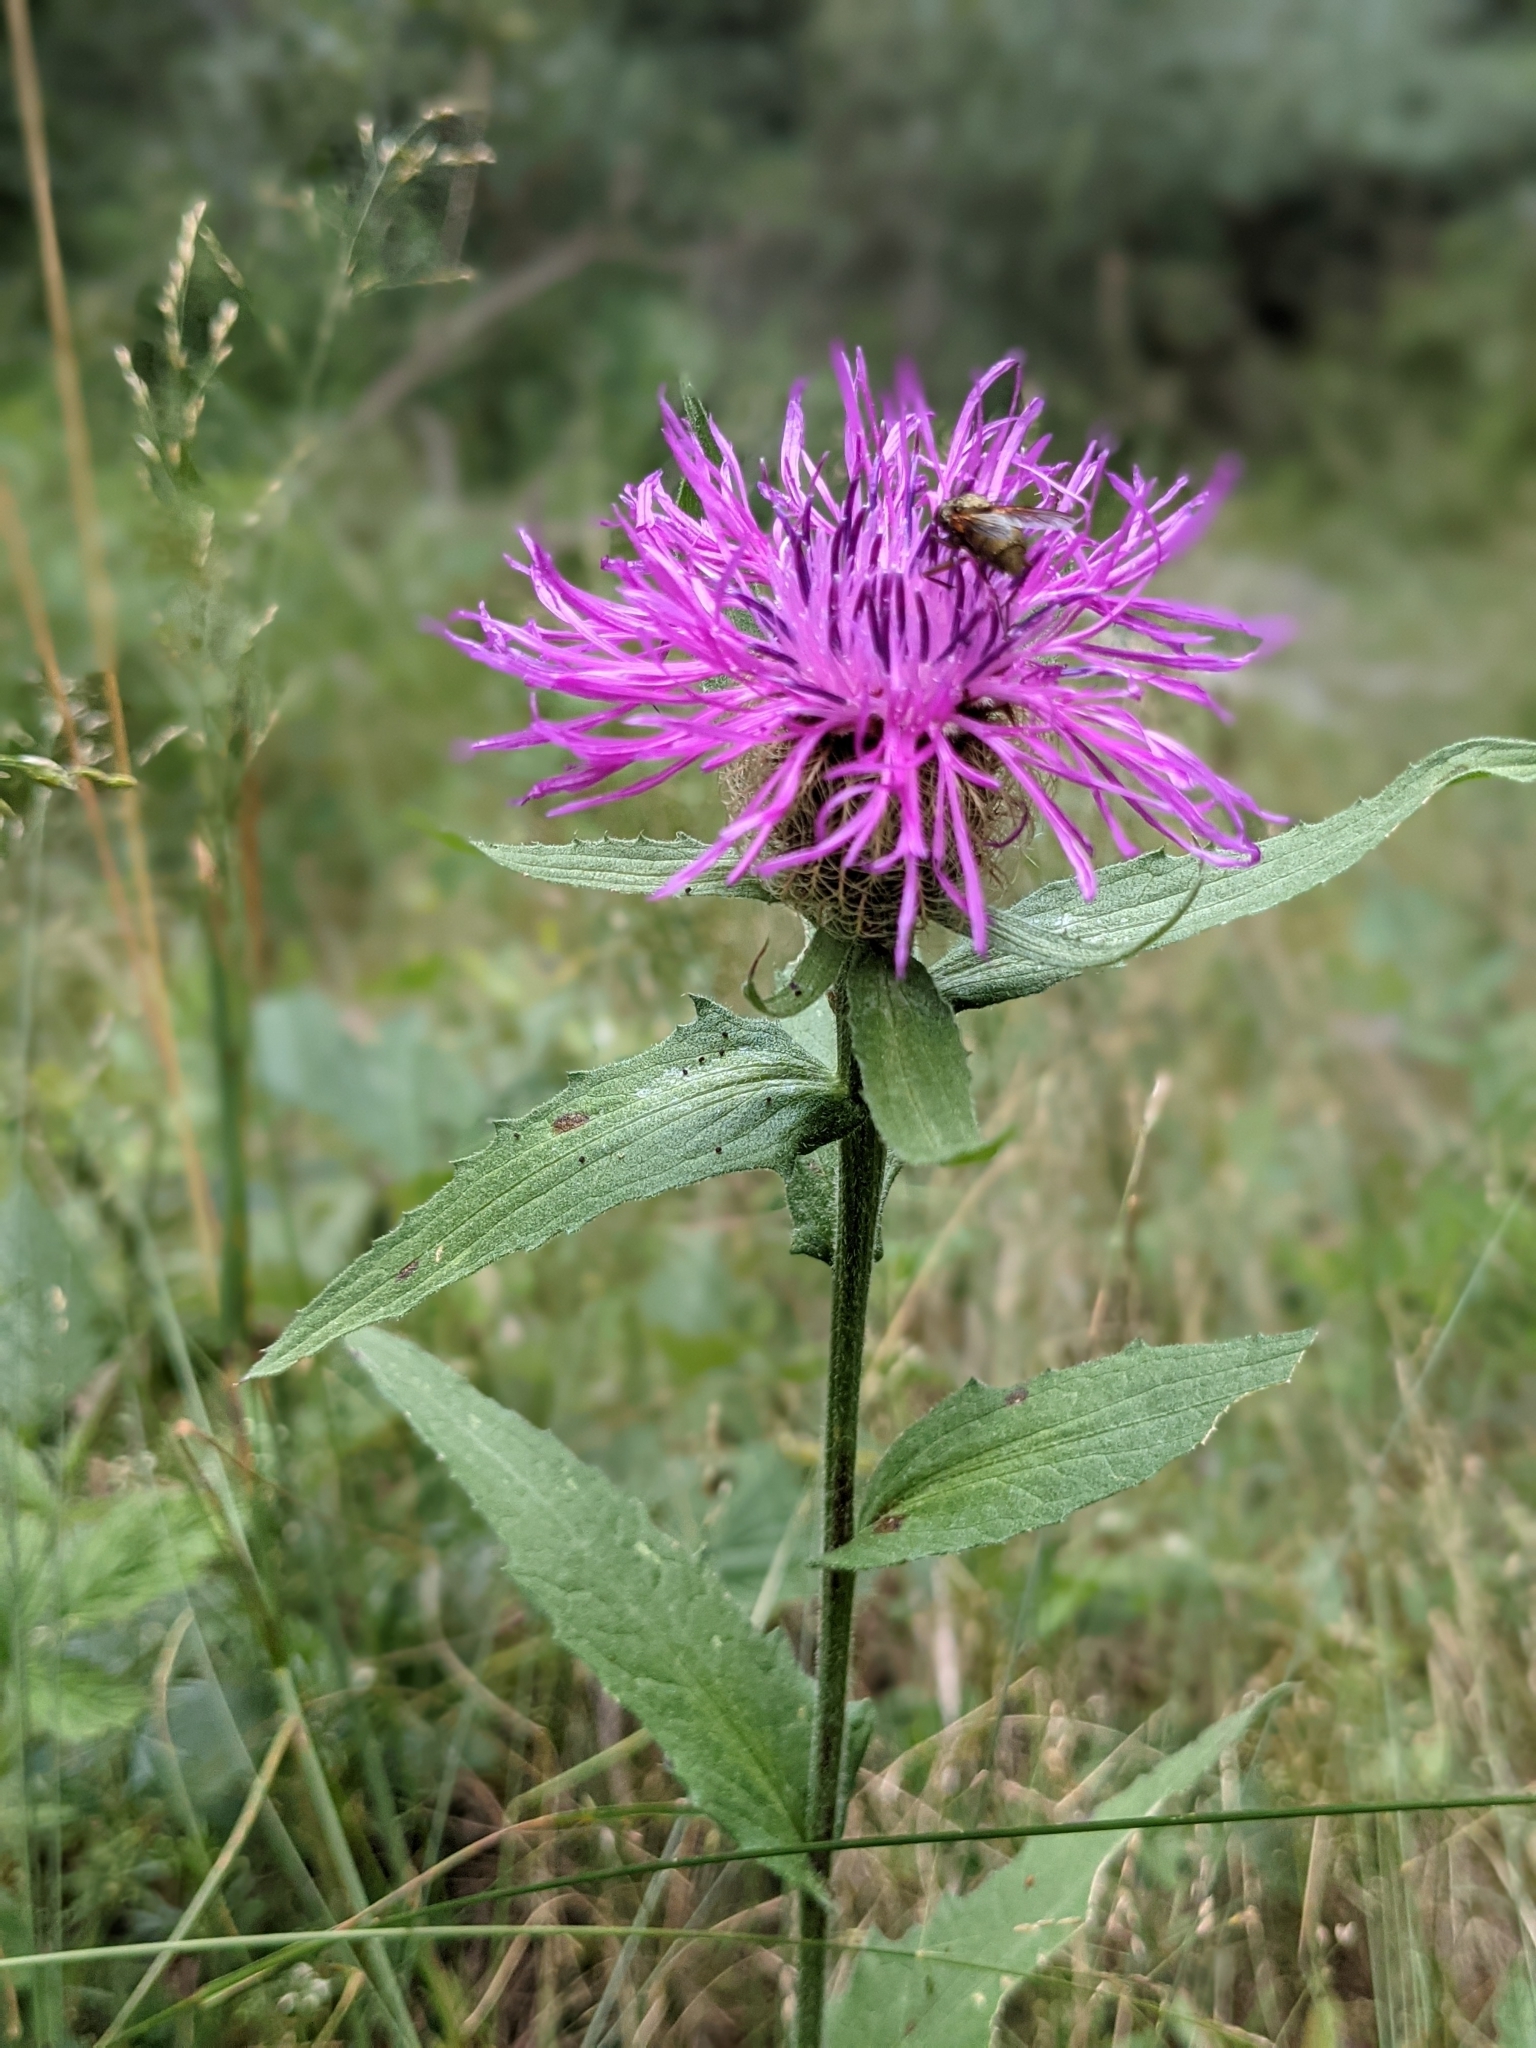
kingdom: Plantae
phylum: Tracheophyta
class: Magnoliopsida
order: Asterales
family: Asteraceae
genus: Centaurea
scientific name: Centaurea nervosa
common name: Singleflower knapweed
